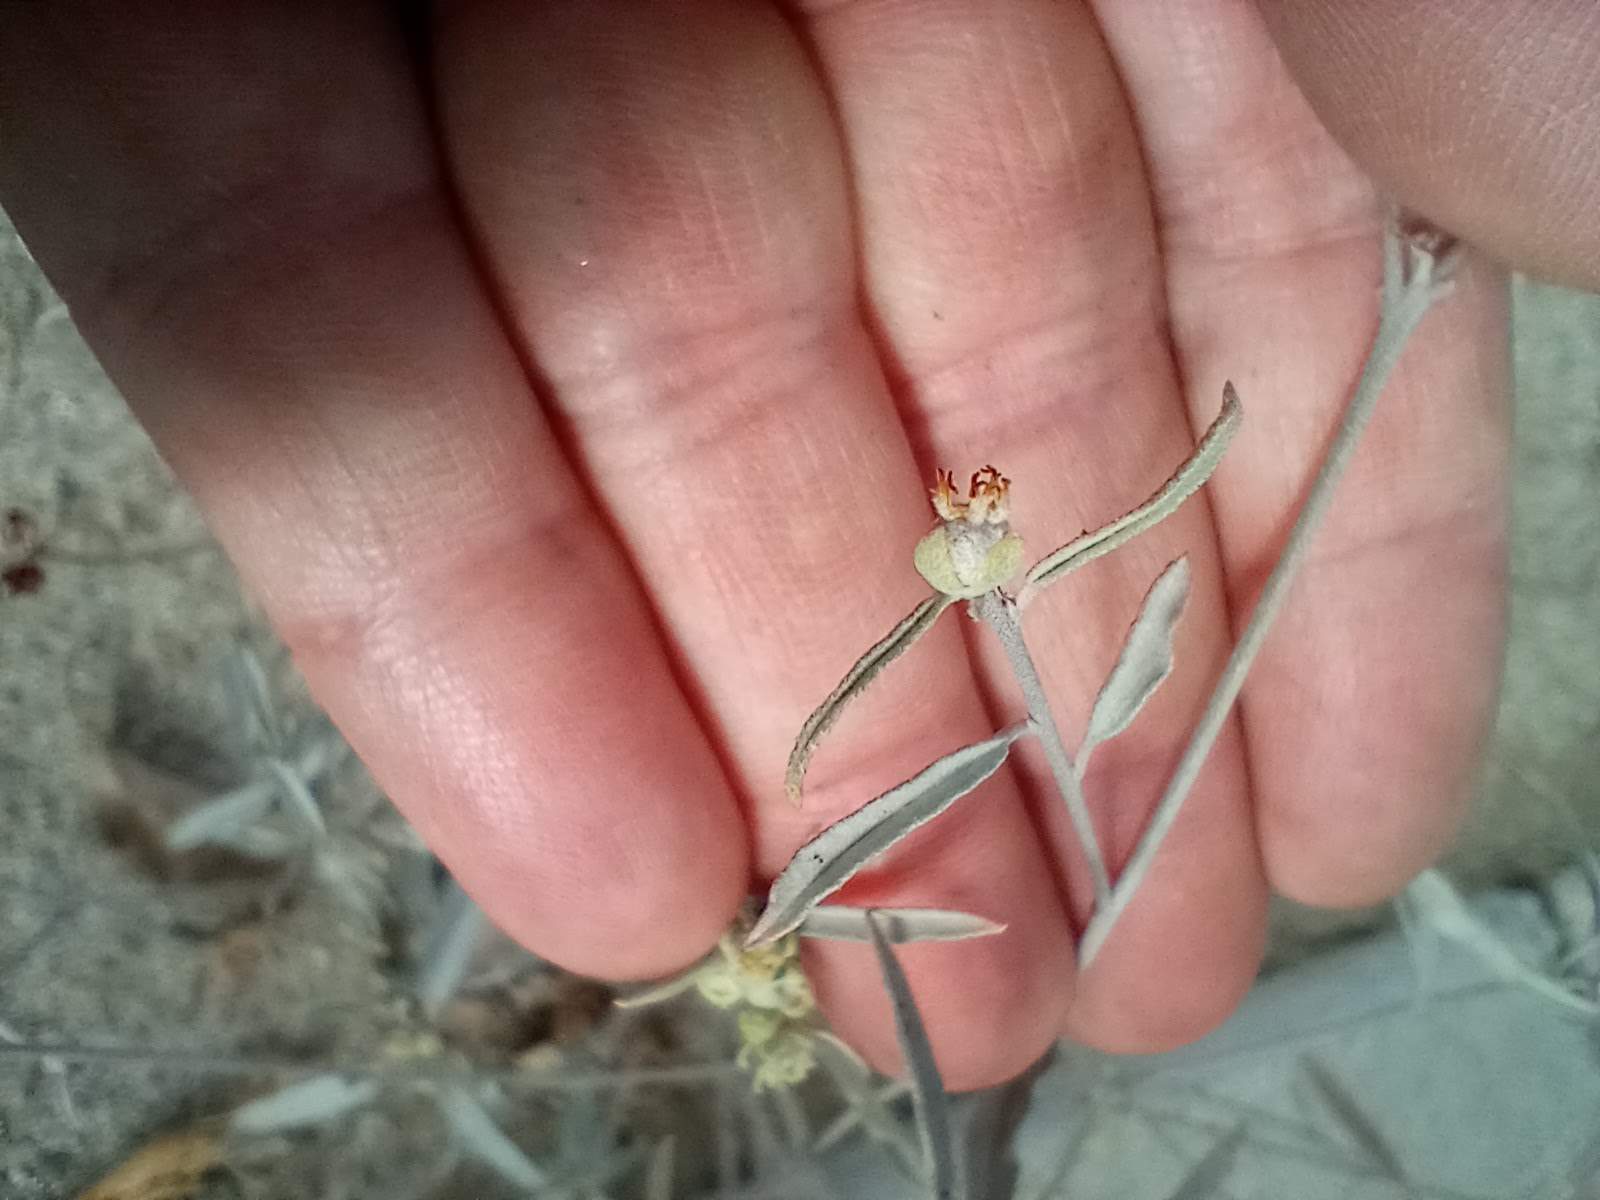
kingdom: Plantae
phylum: Tracheophyta
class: Magnoliopsida
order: Malpighiales
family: Euphorbiaceae
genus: Croton
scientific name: Croton californicus
